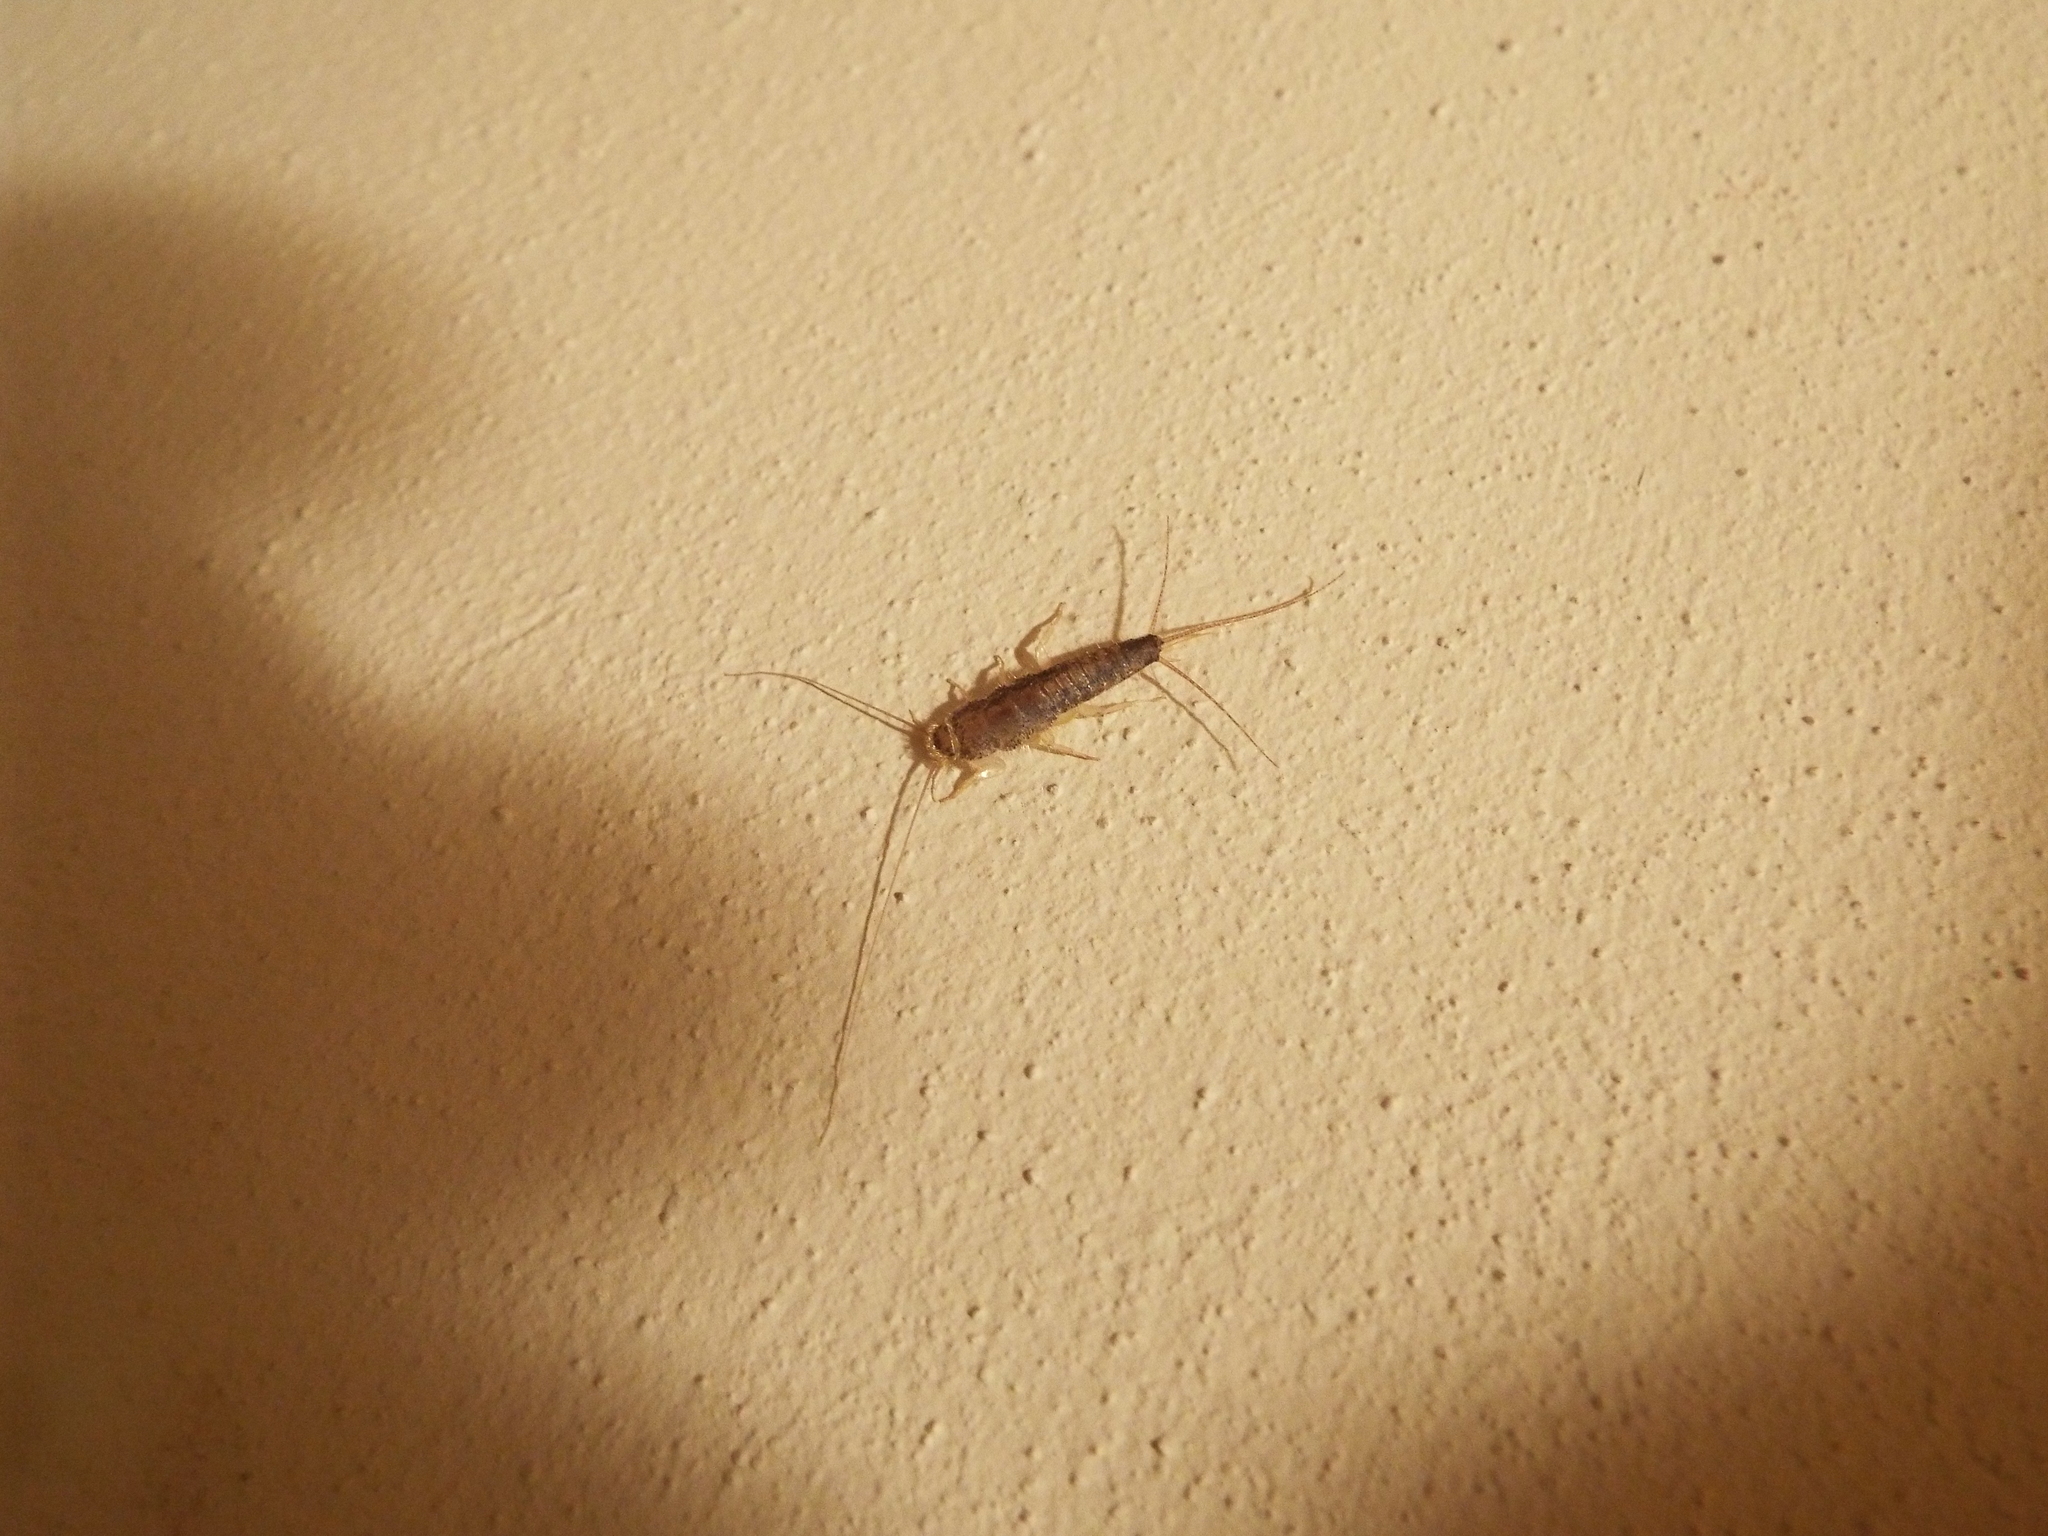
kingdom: Animalia
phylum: Arthropoda
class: Insecta
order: Zygentoma
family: Lepismatidae
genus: Ctenolepisma
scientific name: Ctenolepisma longicaudatum
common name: Silverfish
